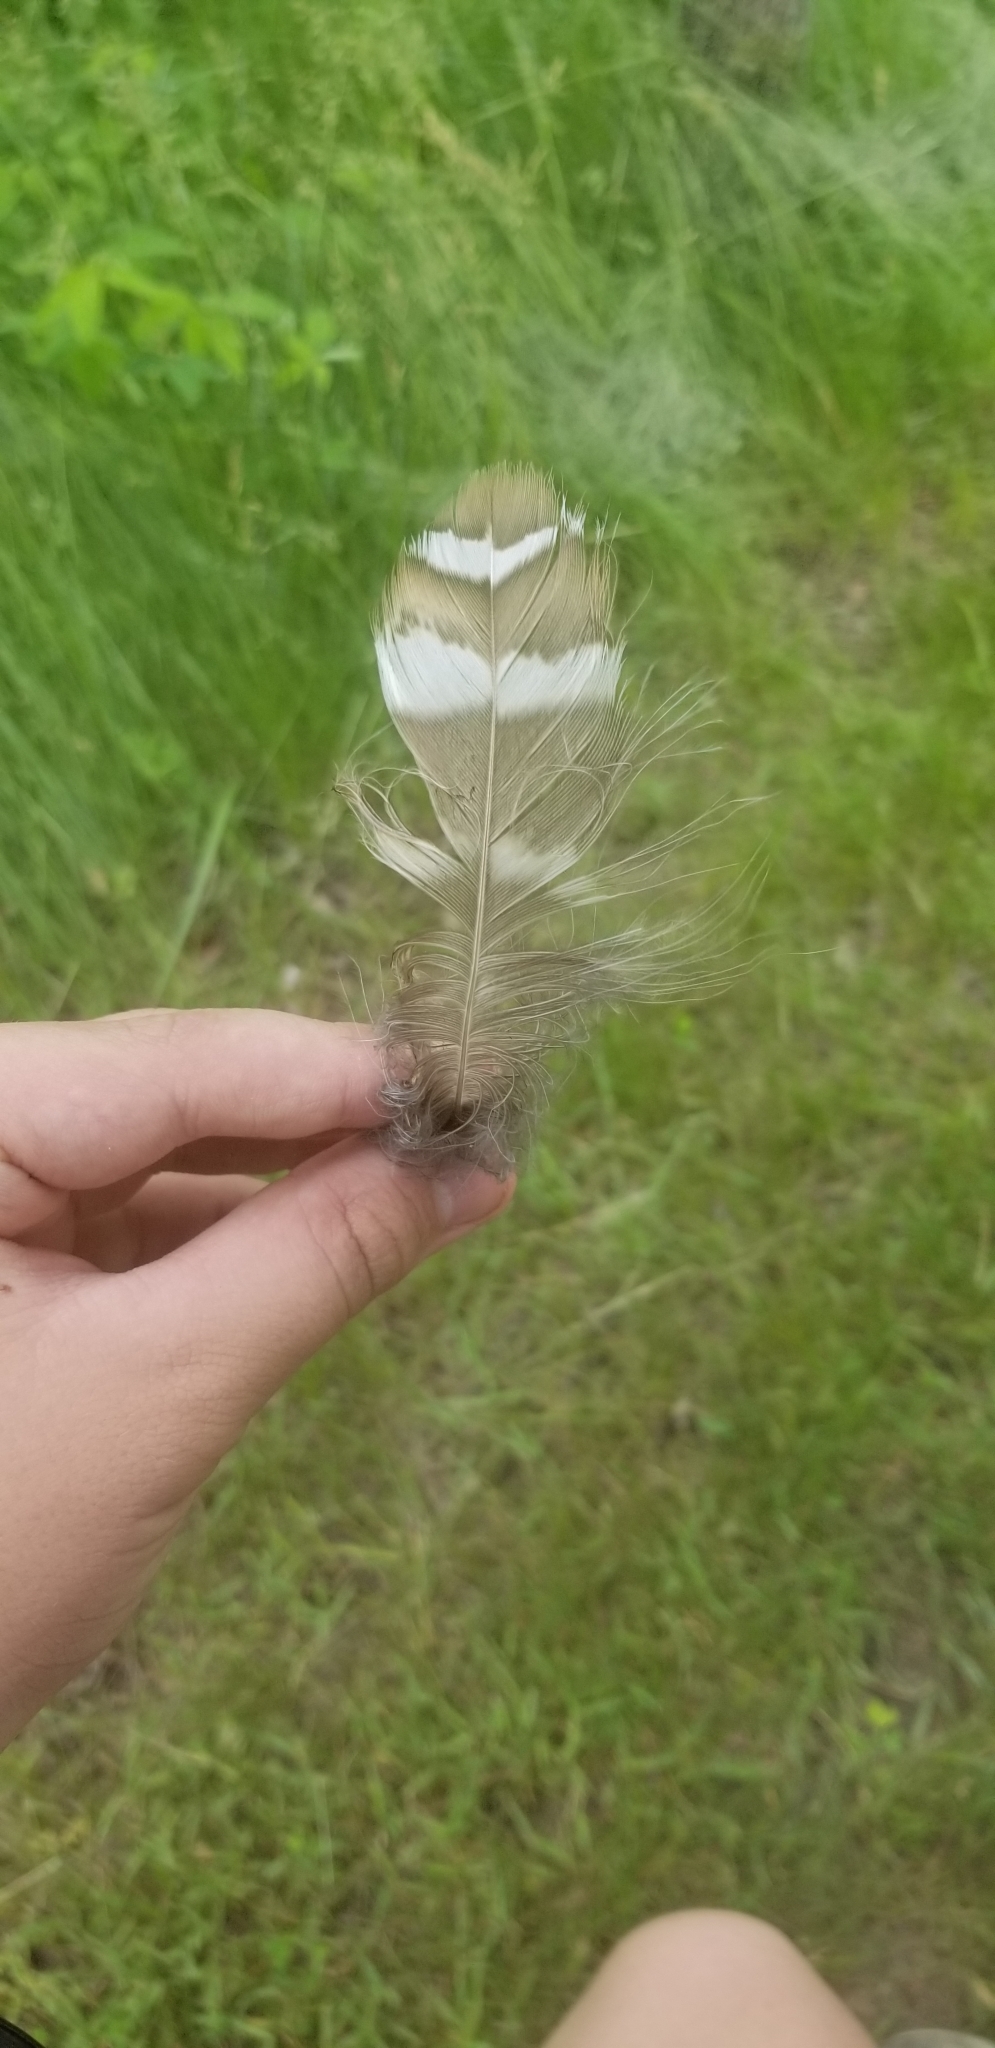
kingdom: Animalia
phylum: Chordata
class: Aves
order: Strigiformes
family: Strigidae
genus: Strix
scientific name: Strix varia
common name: Barred owl
